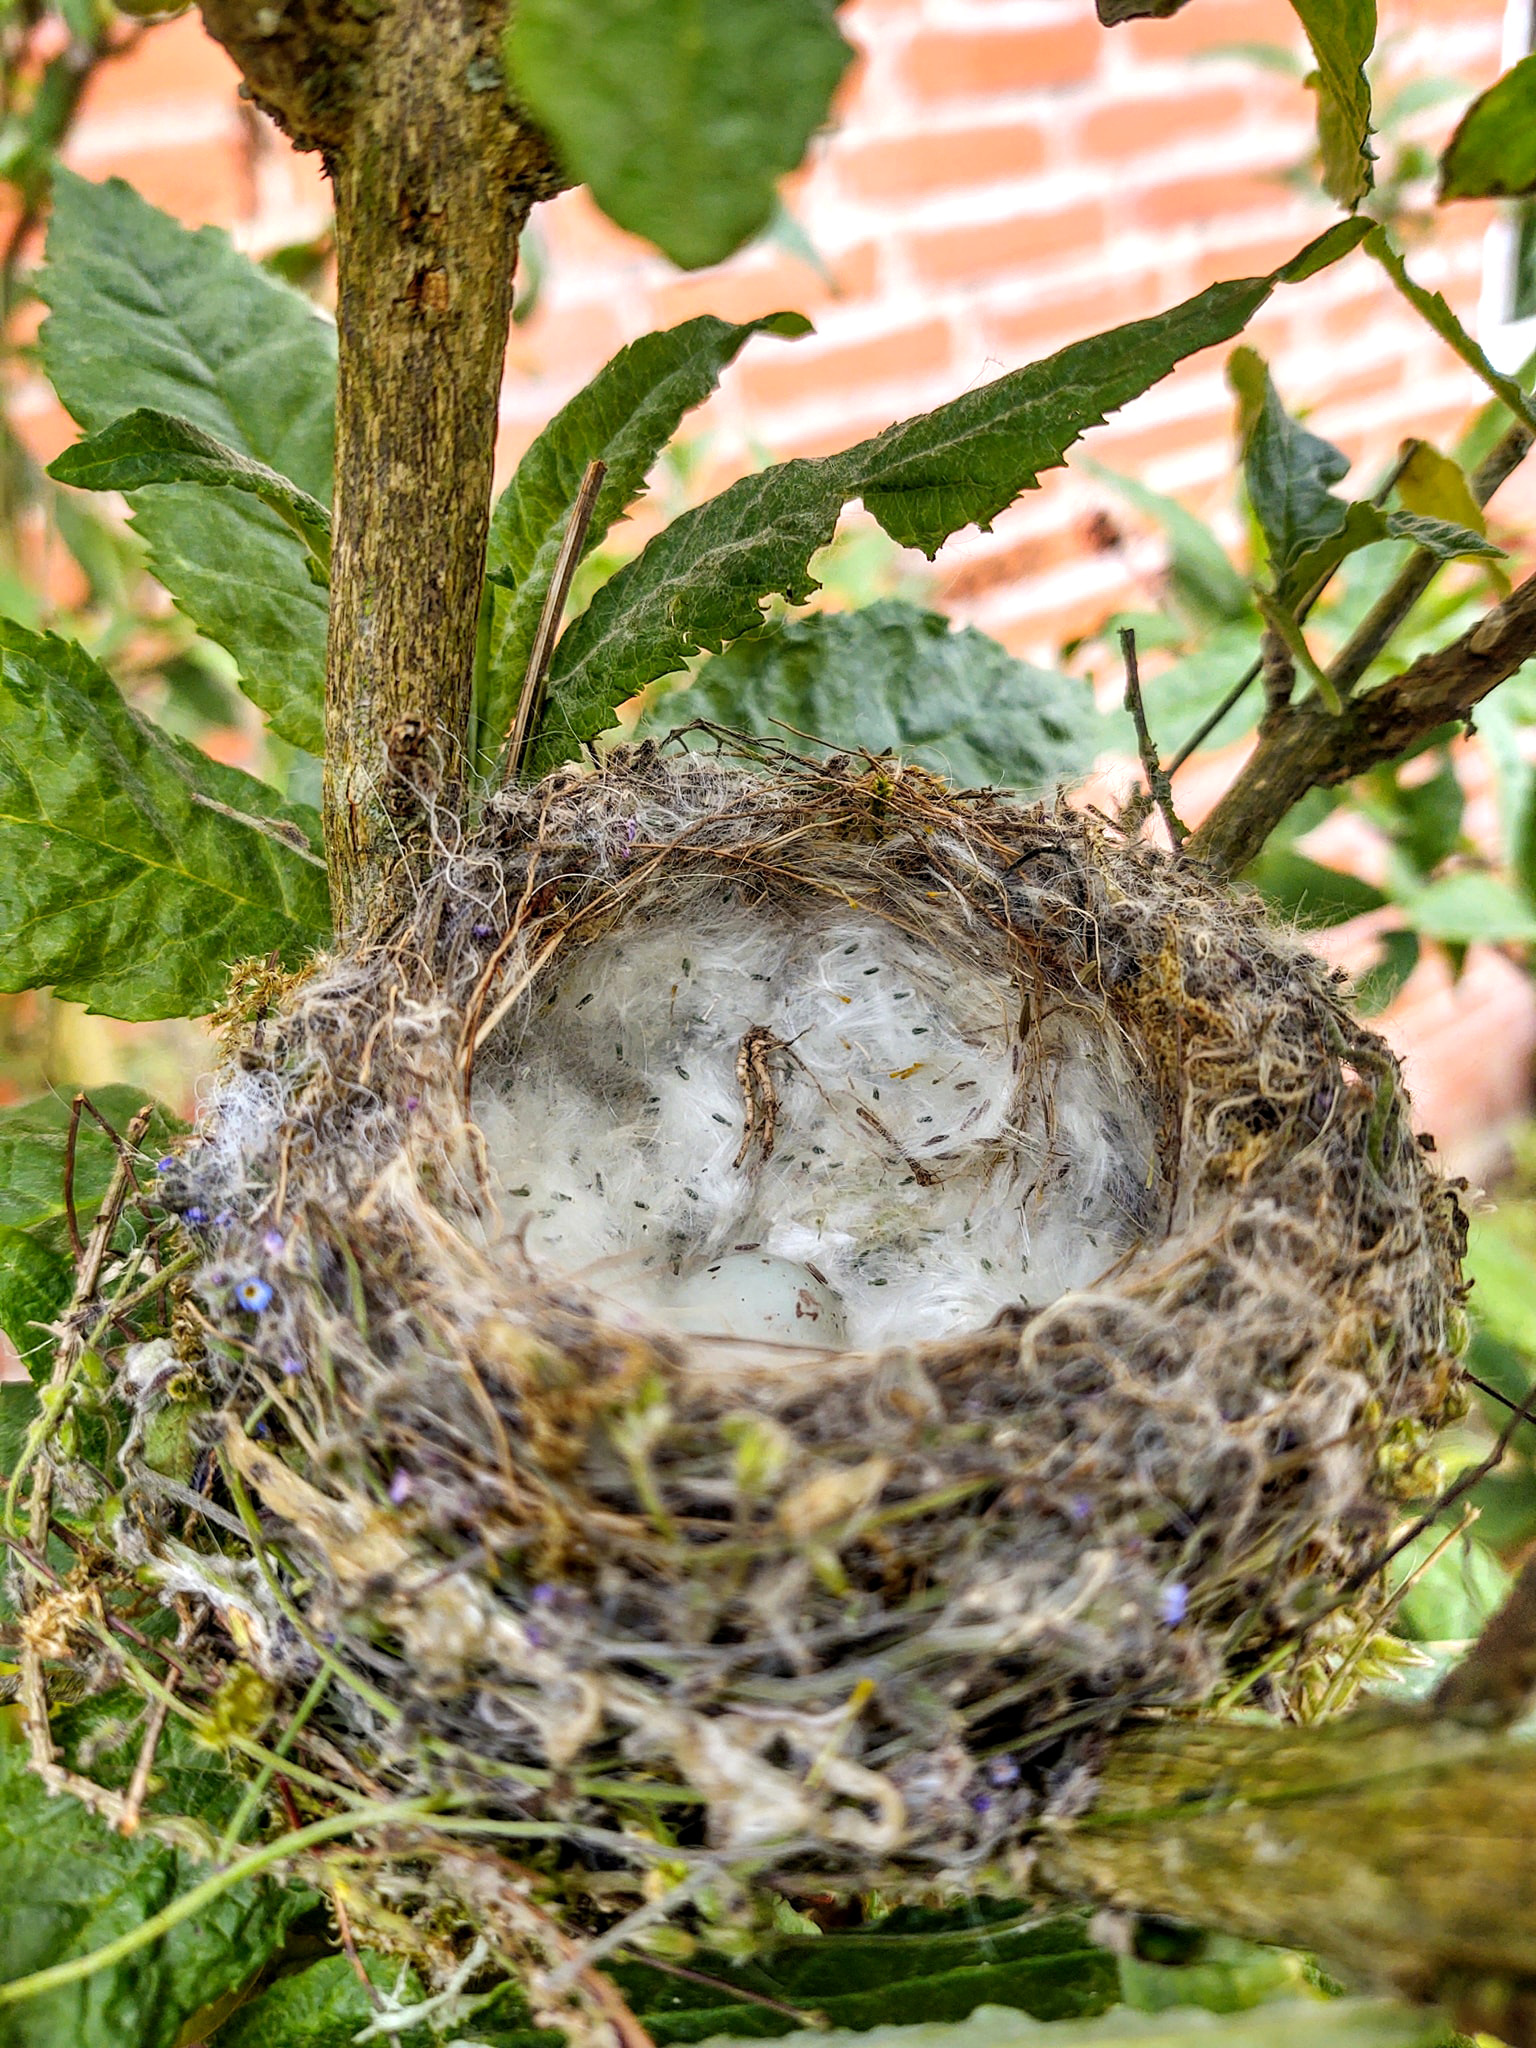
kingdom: Animalia
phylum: Chordata
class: Aves
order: Passeriformes
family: Fringillidae
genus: Carduelis
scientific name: Carduelis carduelis
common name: European goldfinch
